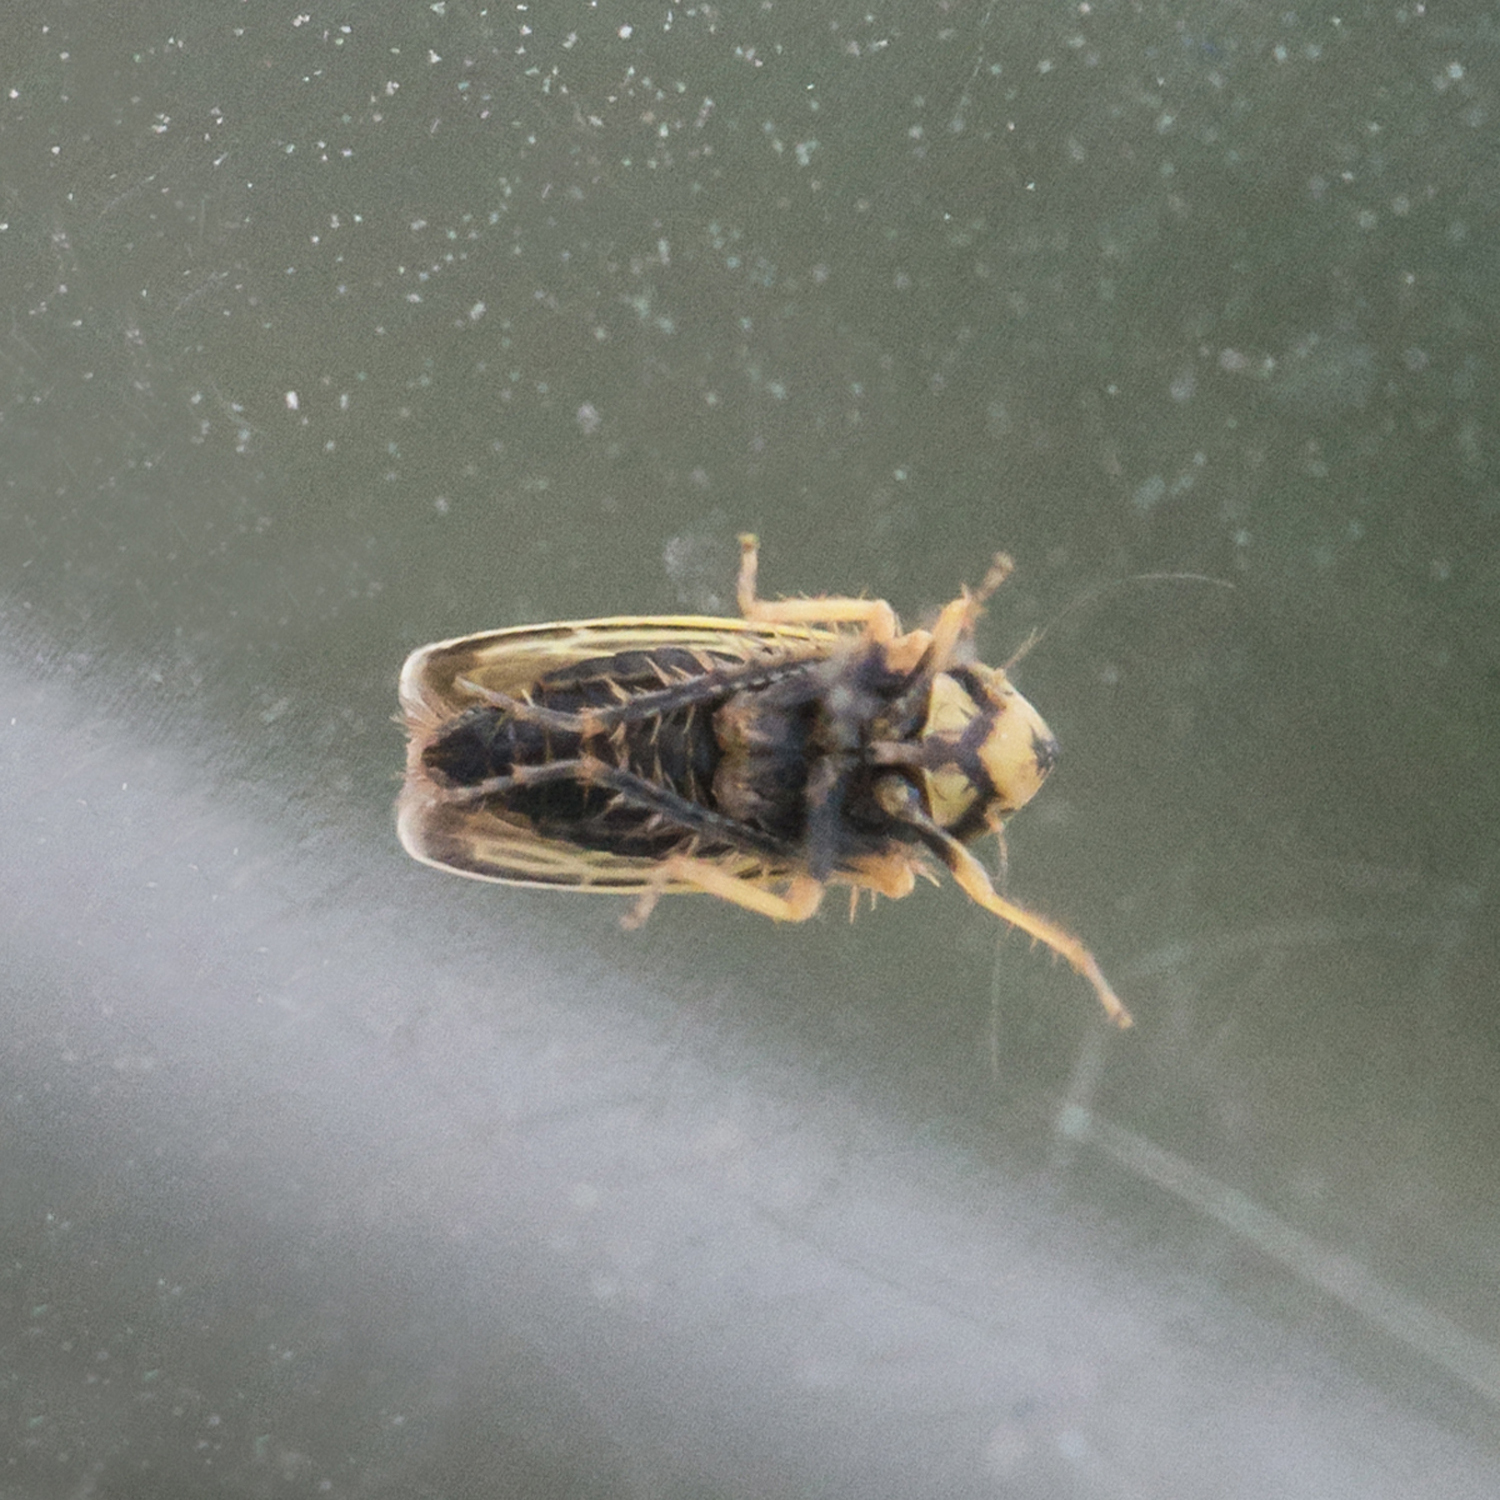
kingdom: Animalia
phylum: Arthropoda
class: Insecta
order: Hemiptera
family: Cicadellidae
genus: Amblysellus
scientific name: Amblysellus curtisii
